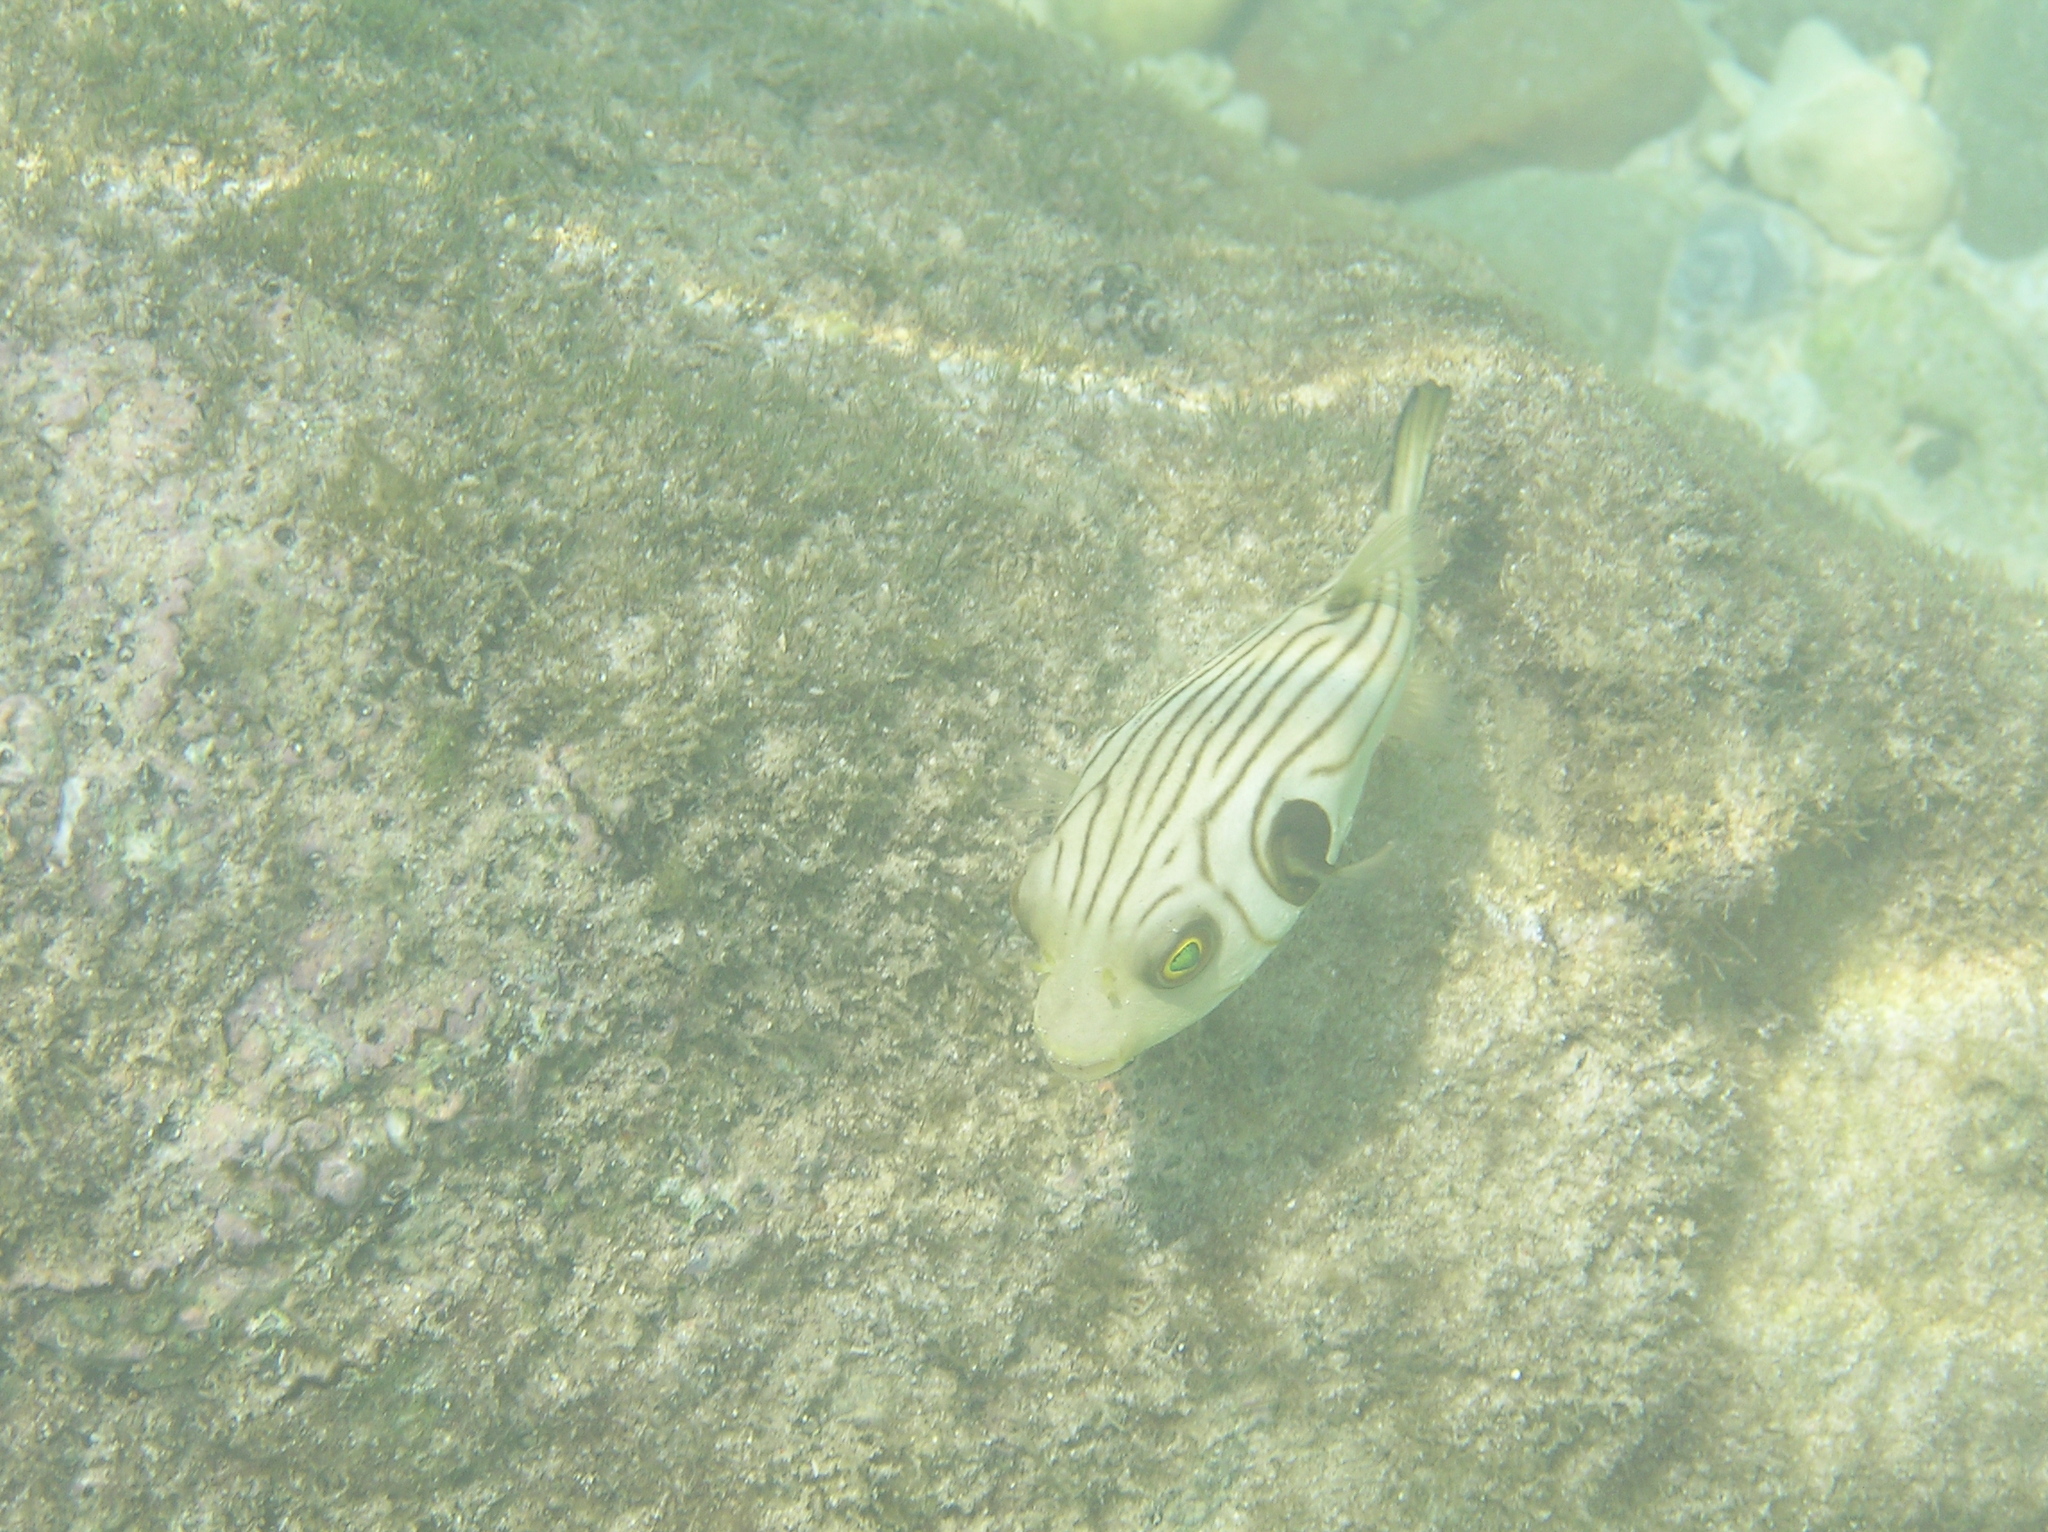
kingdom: Animalia
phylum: Chordata
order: Tetraodontiformes
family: Tetraodontidae
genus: Arothron
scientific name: Arothron manilensis
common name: Narrow-lined puffer
